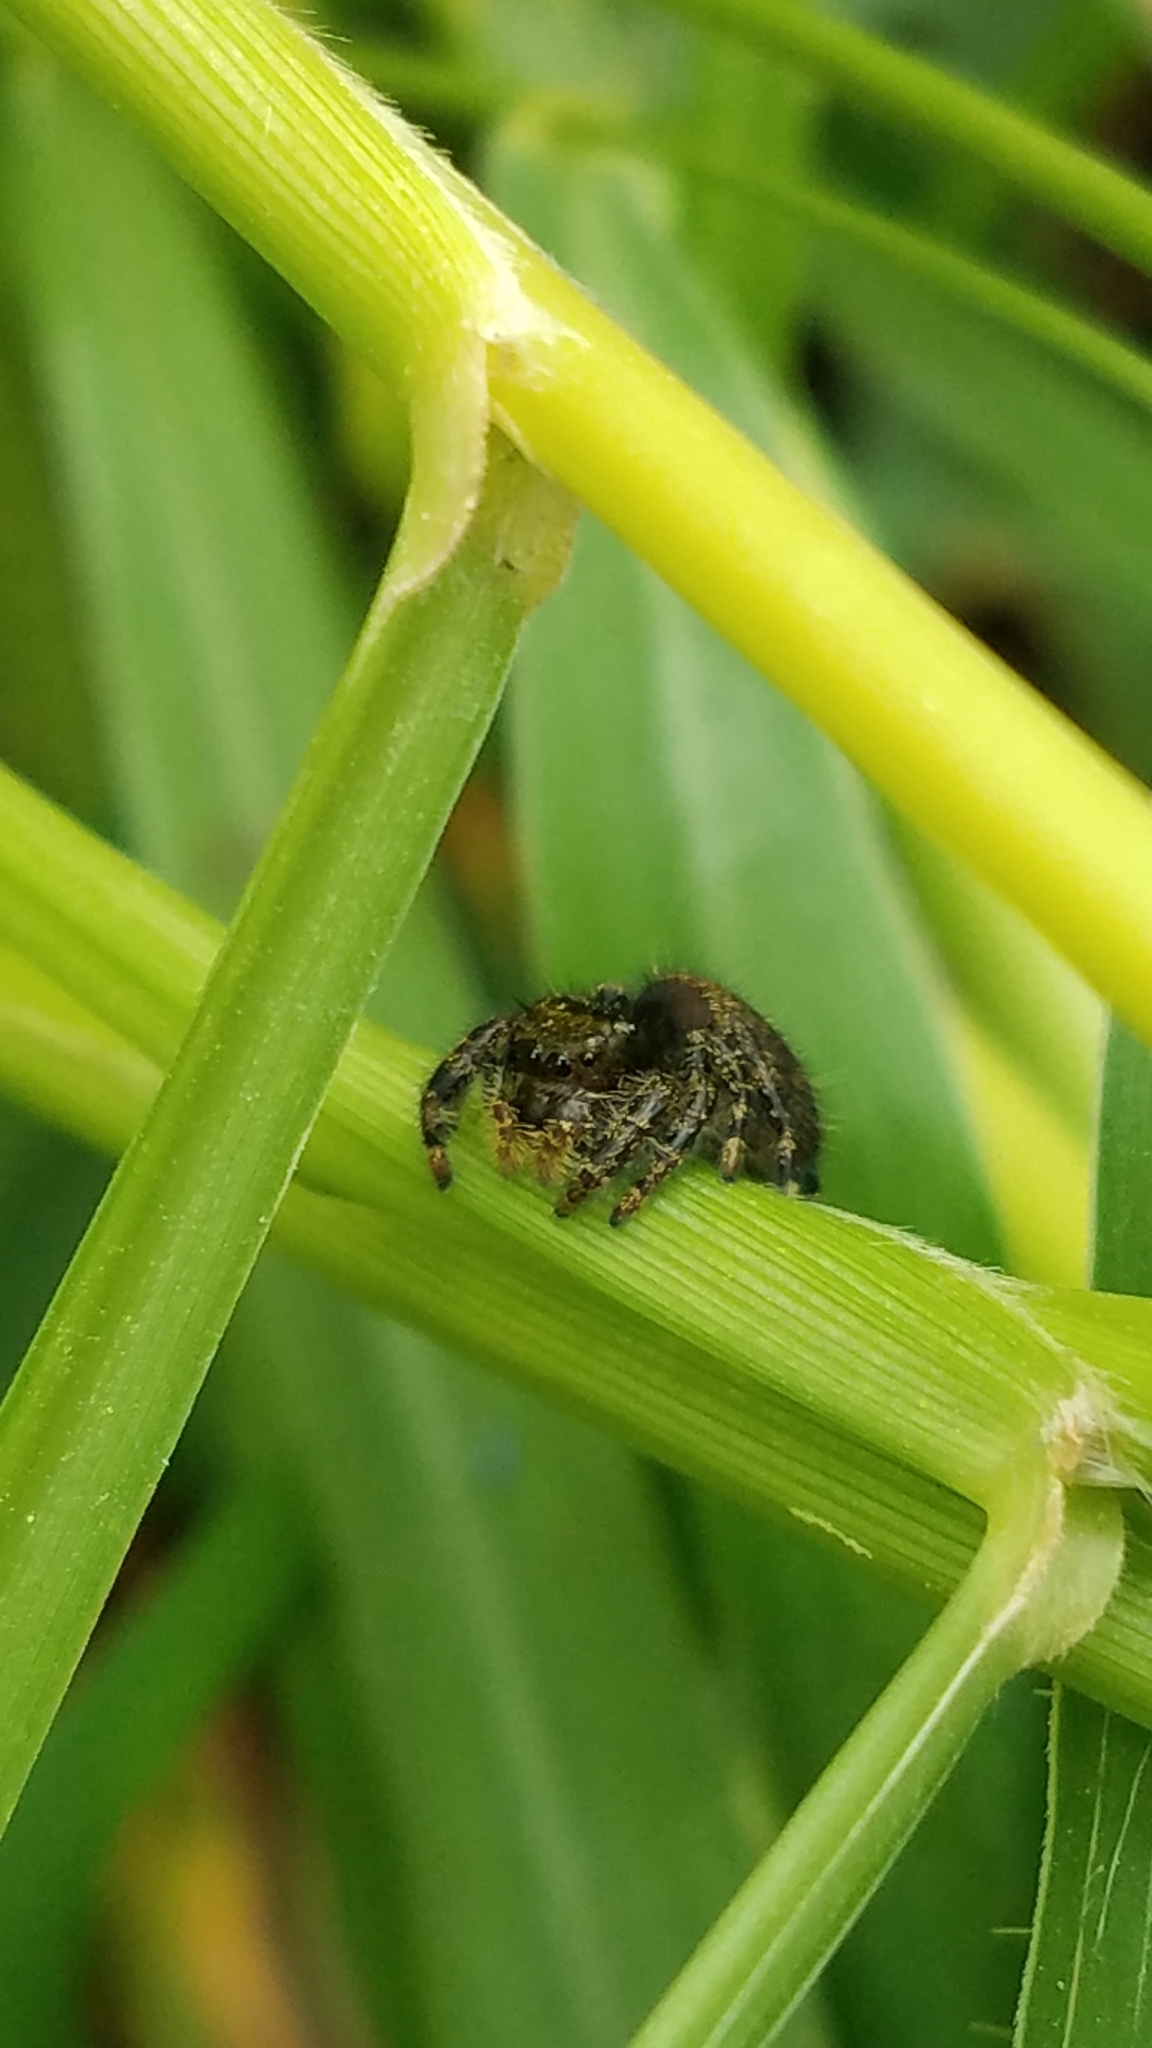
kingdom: Animalia
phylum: Arthropoda
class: Arachnida
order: Araneae
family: Salticidae
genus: Phidippus
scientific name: Phidippus audax
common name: Bold jumper
